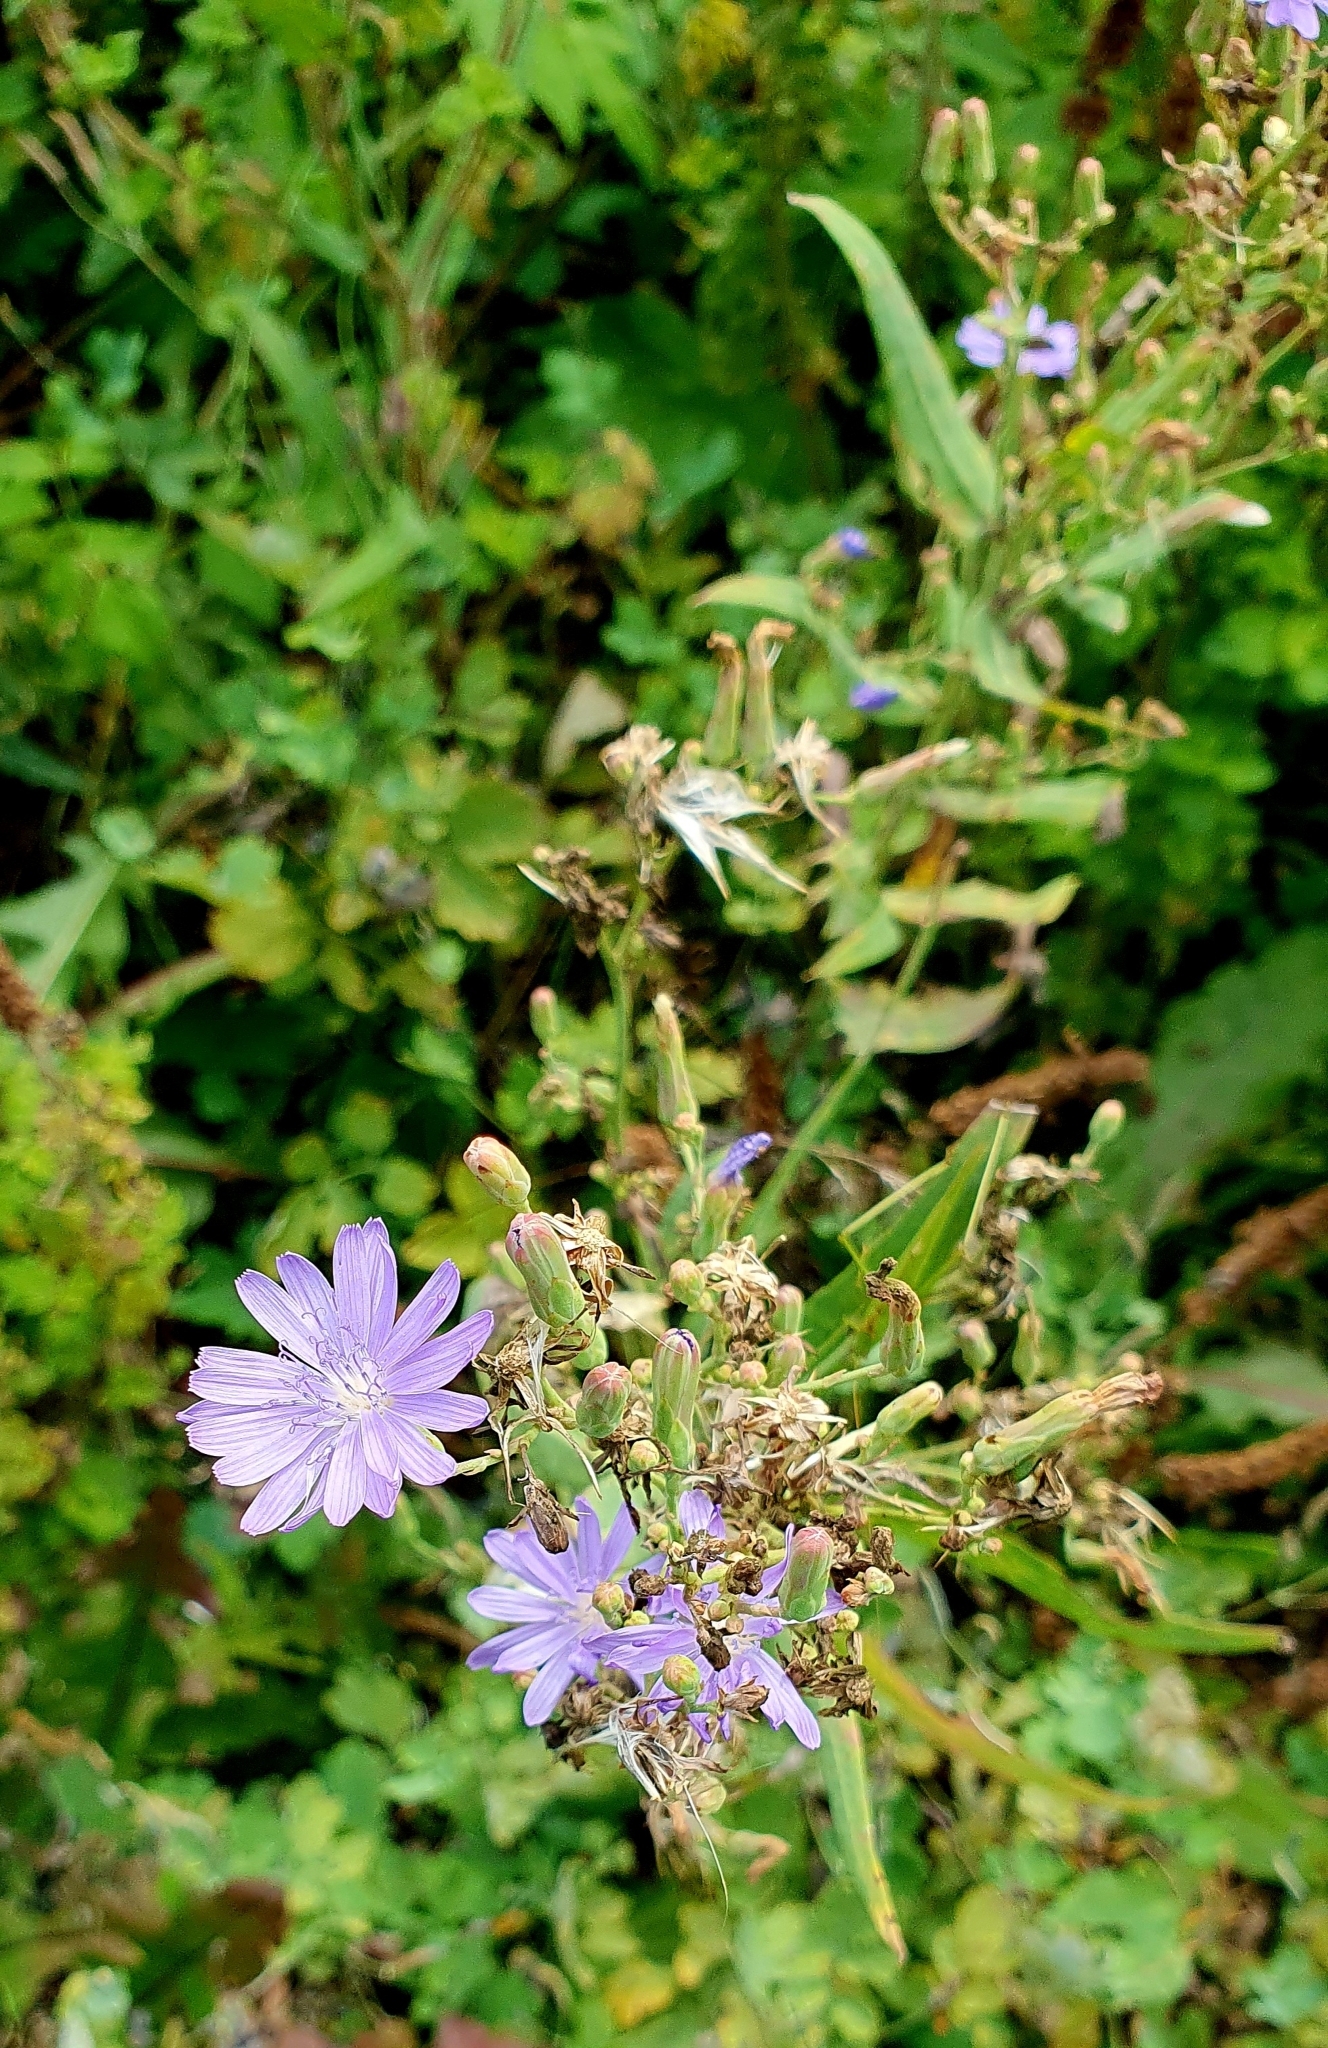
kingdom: Plantae
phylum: Tracheophyta
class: Magnoliopsida
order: Asterales
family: Asteraceae
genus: Lactuca
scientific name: Lactuca tatarica
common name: Blue lettuce
